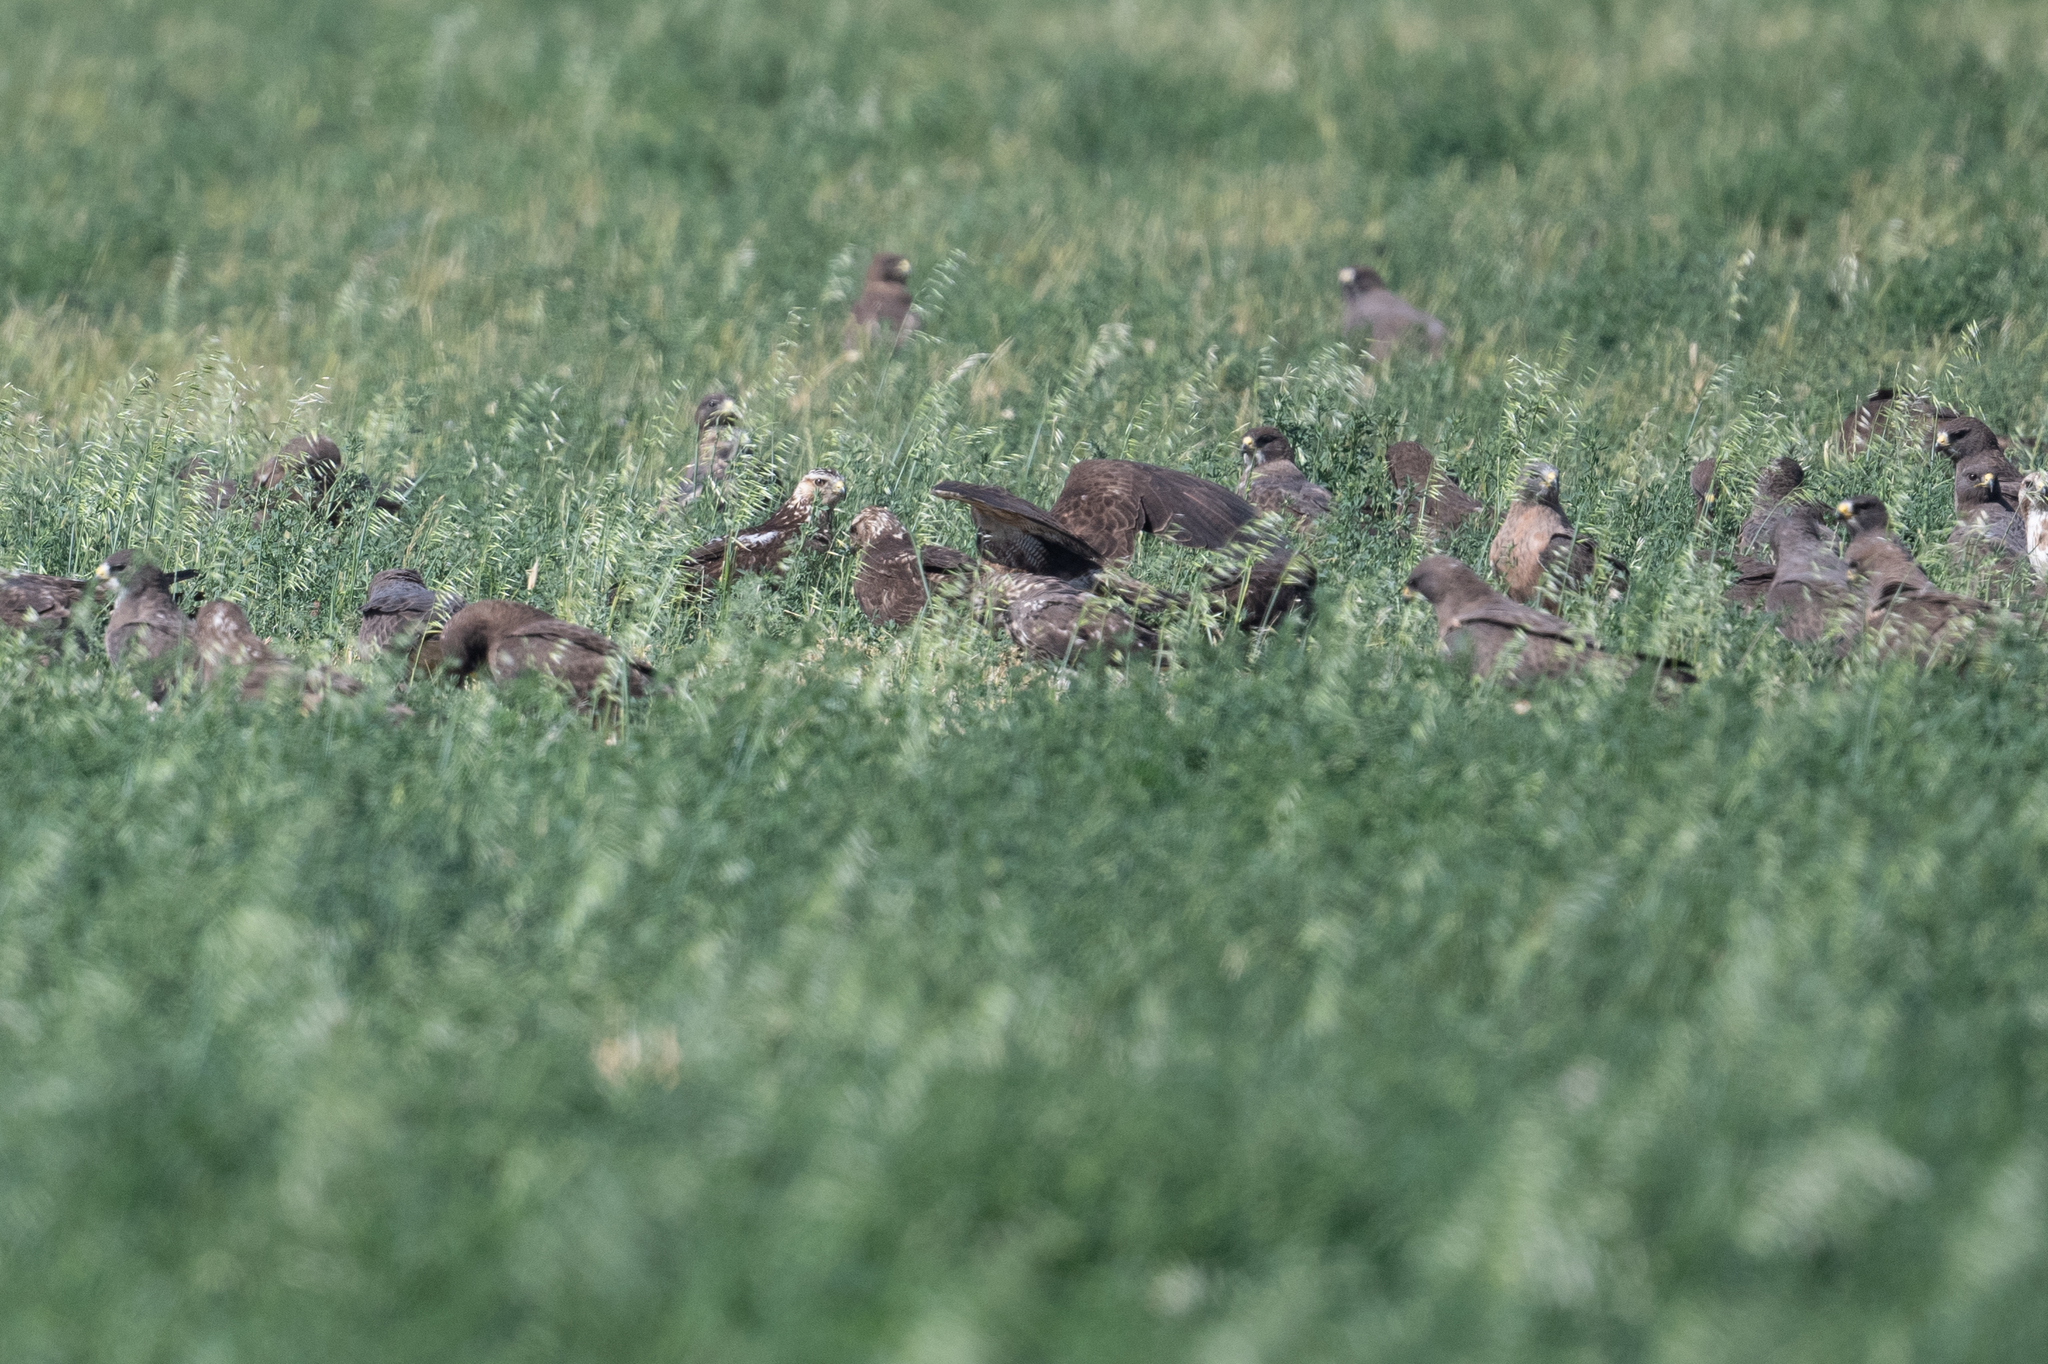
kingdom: Animalia
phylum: Chordata
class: Aves
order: Accipitriformes
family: Accipitridae
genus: Buteo
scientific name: Buteo swainsoni
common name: Swainson's hawk
